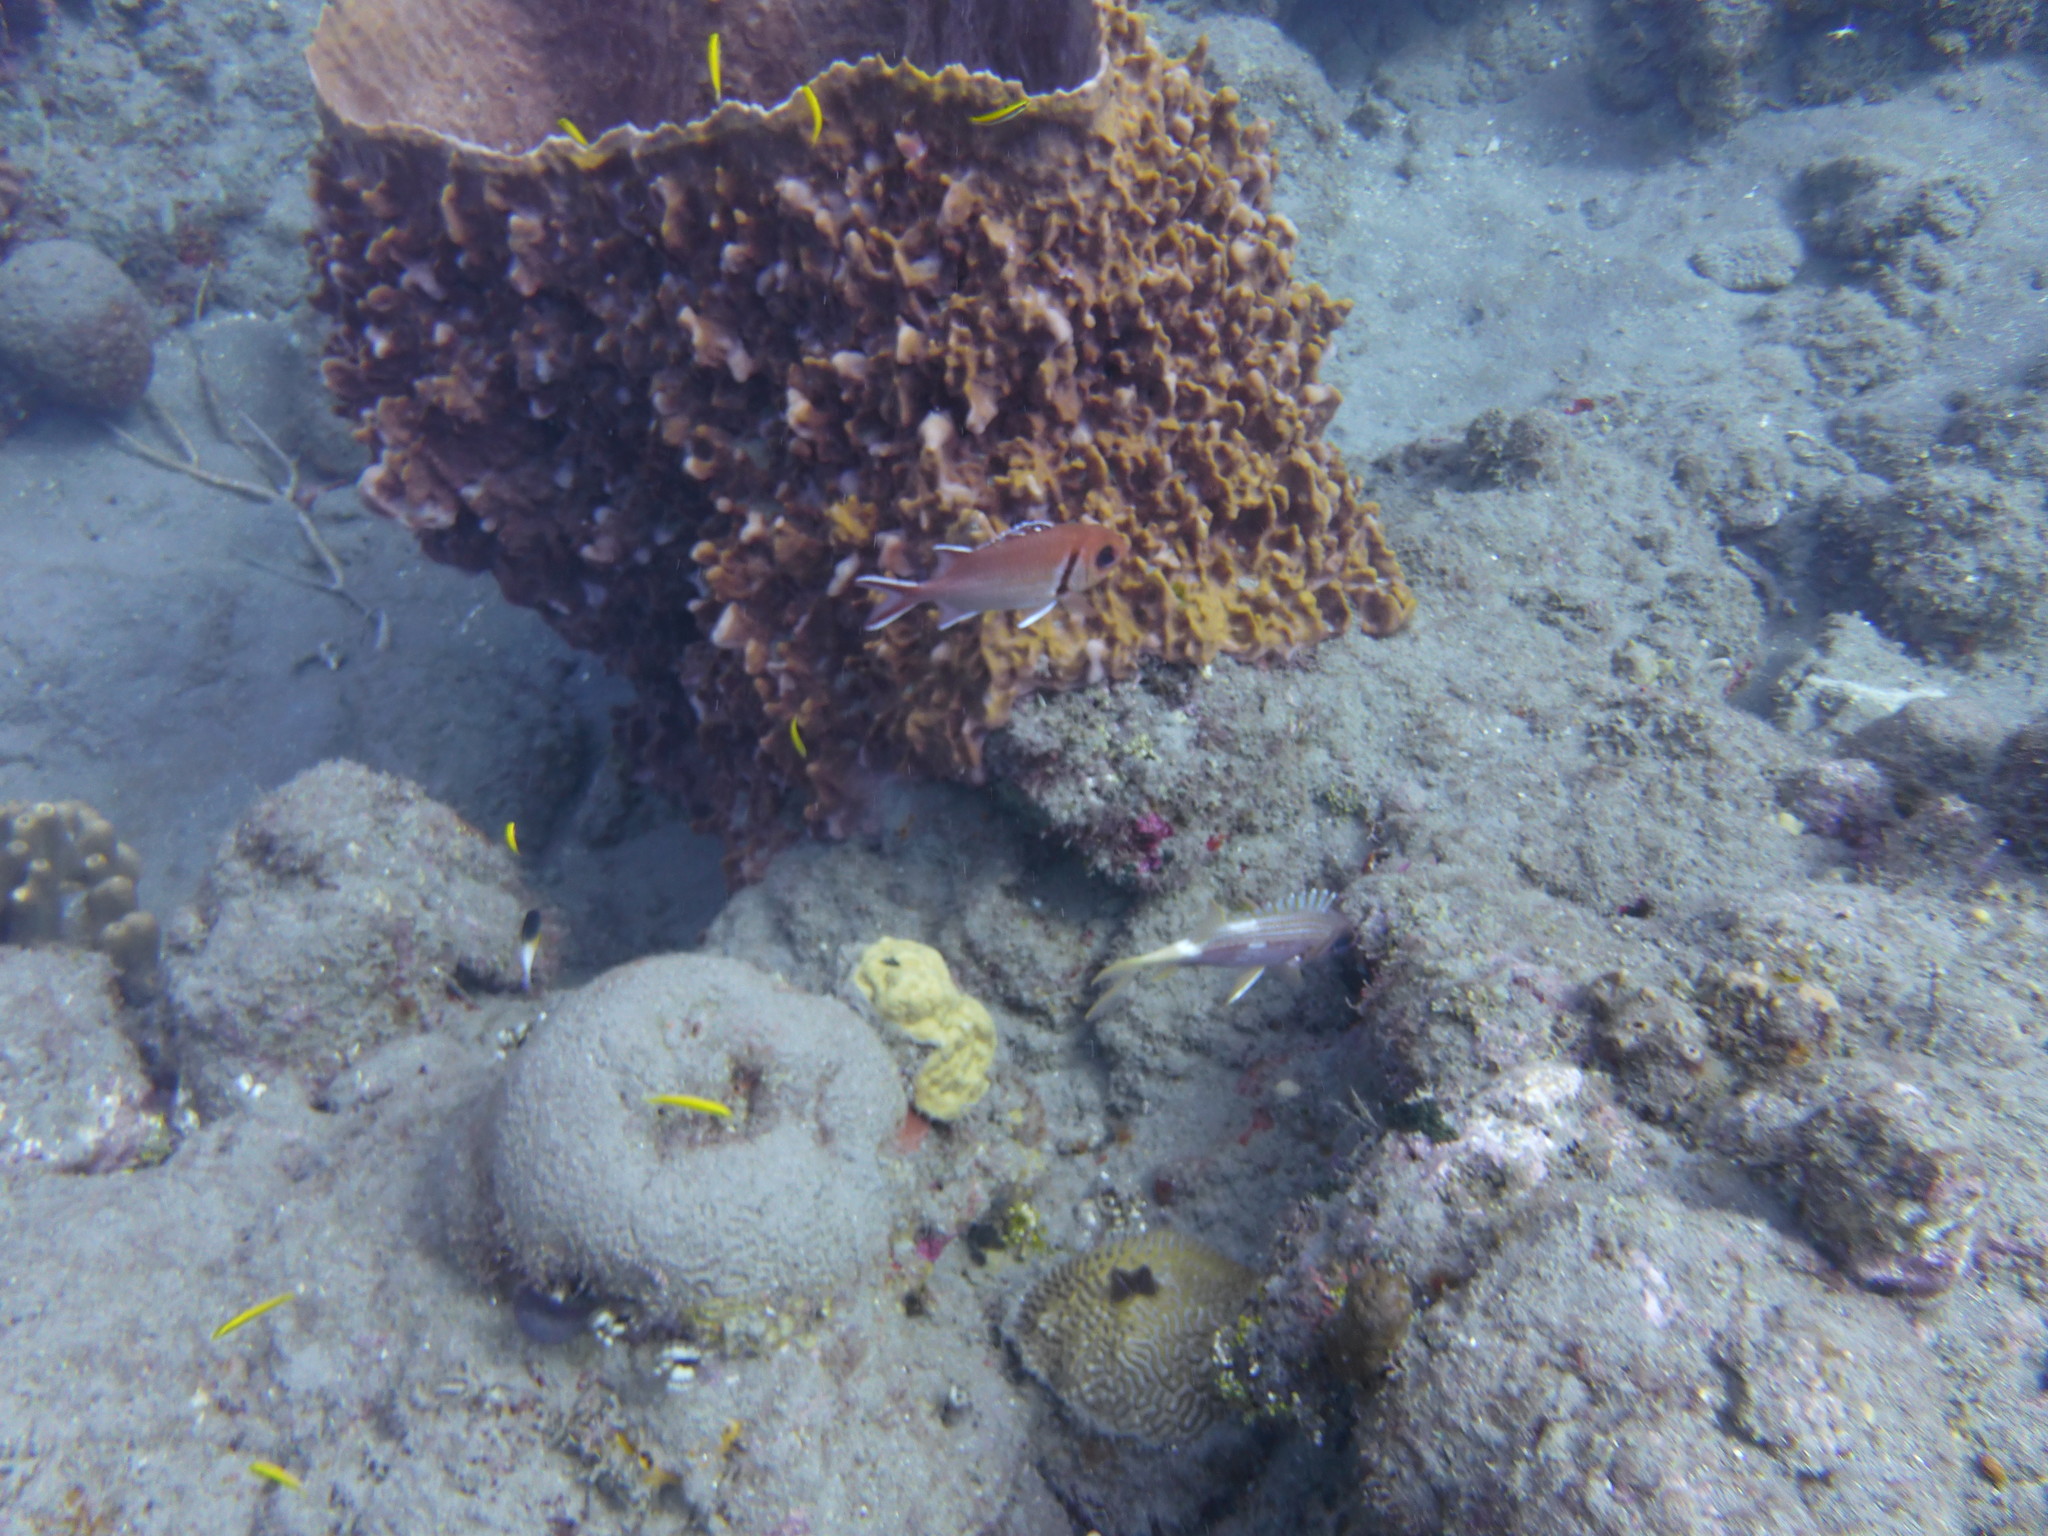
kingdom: Animalia
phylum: Chordata
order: Beryciformes
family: Holocentridae
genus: Myripristis
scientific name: Myripristis jacobus
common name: Blackbar soldierfish
